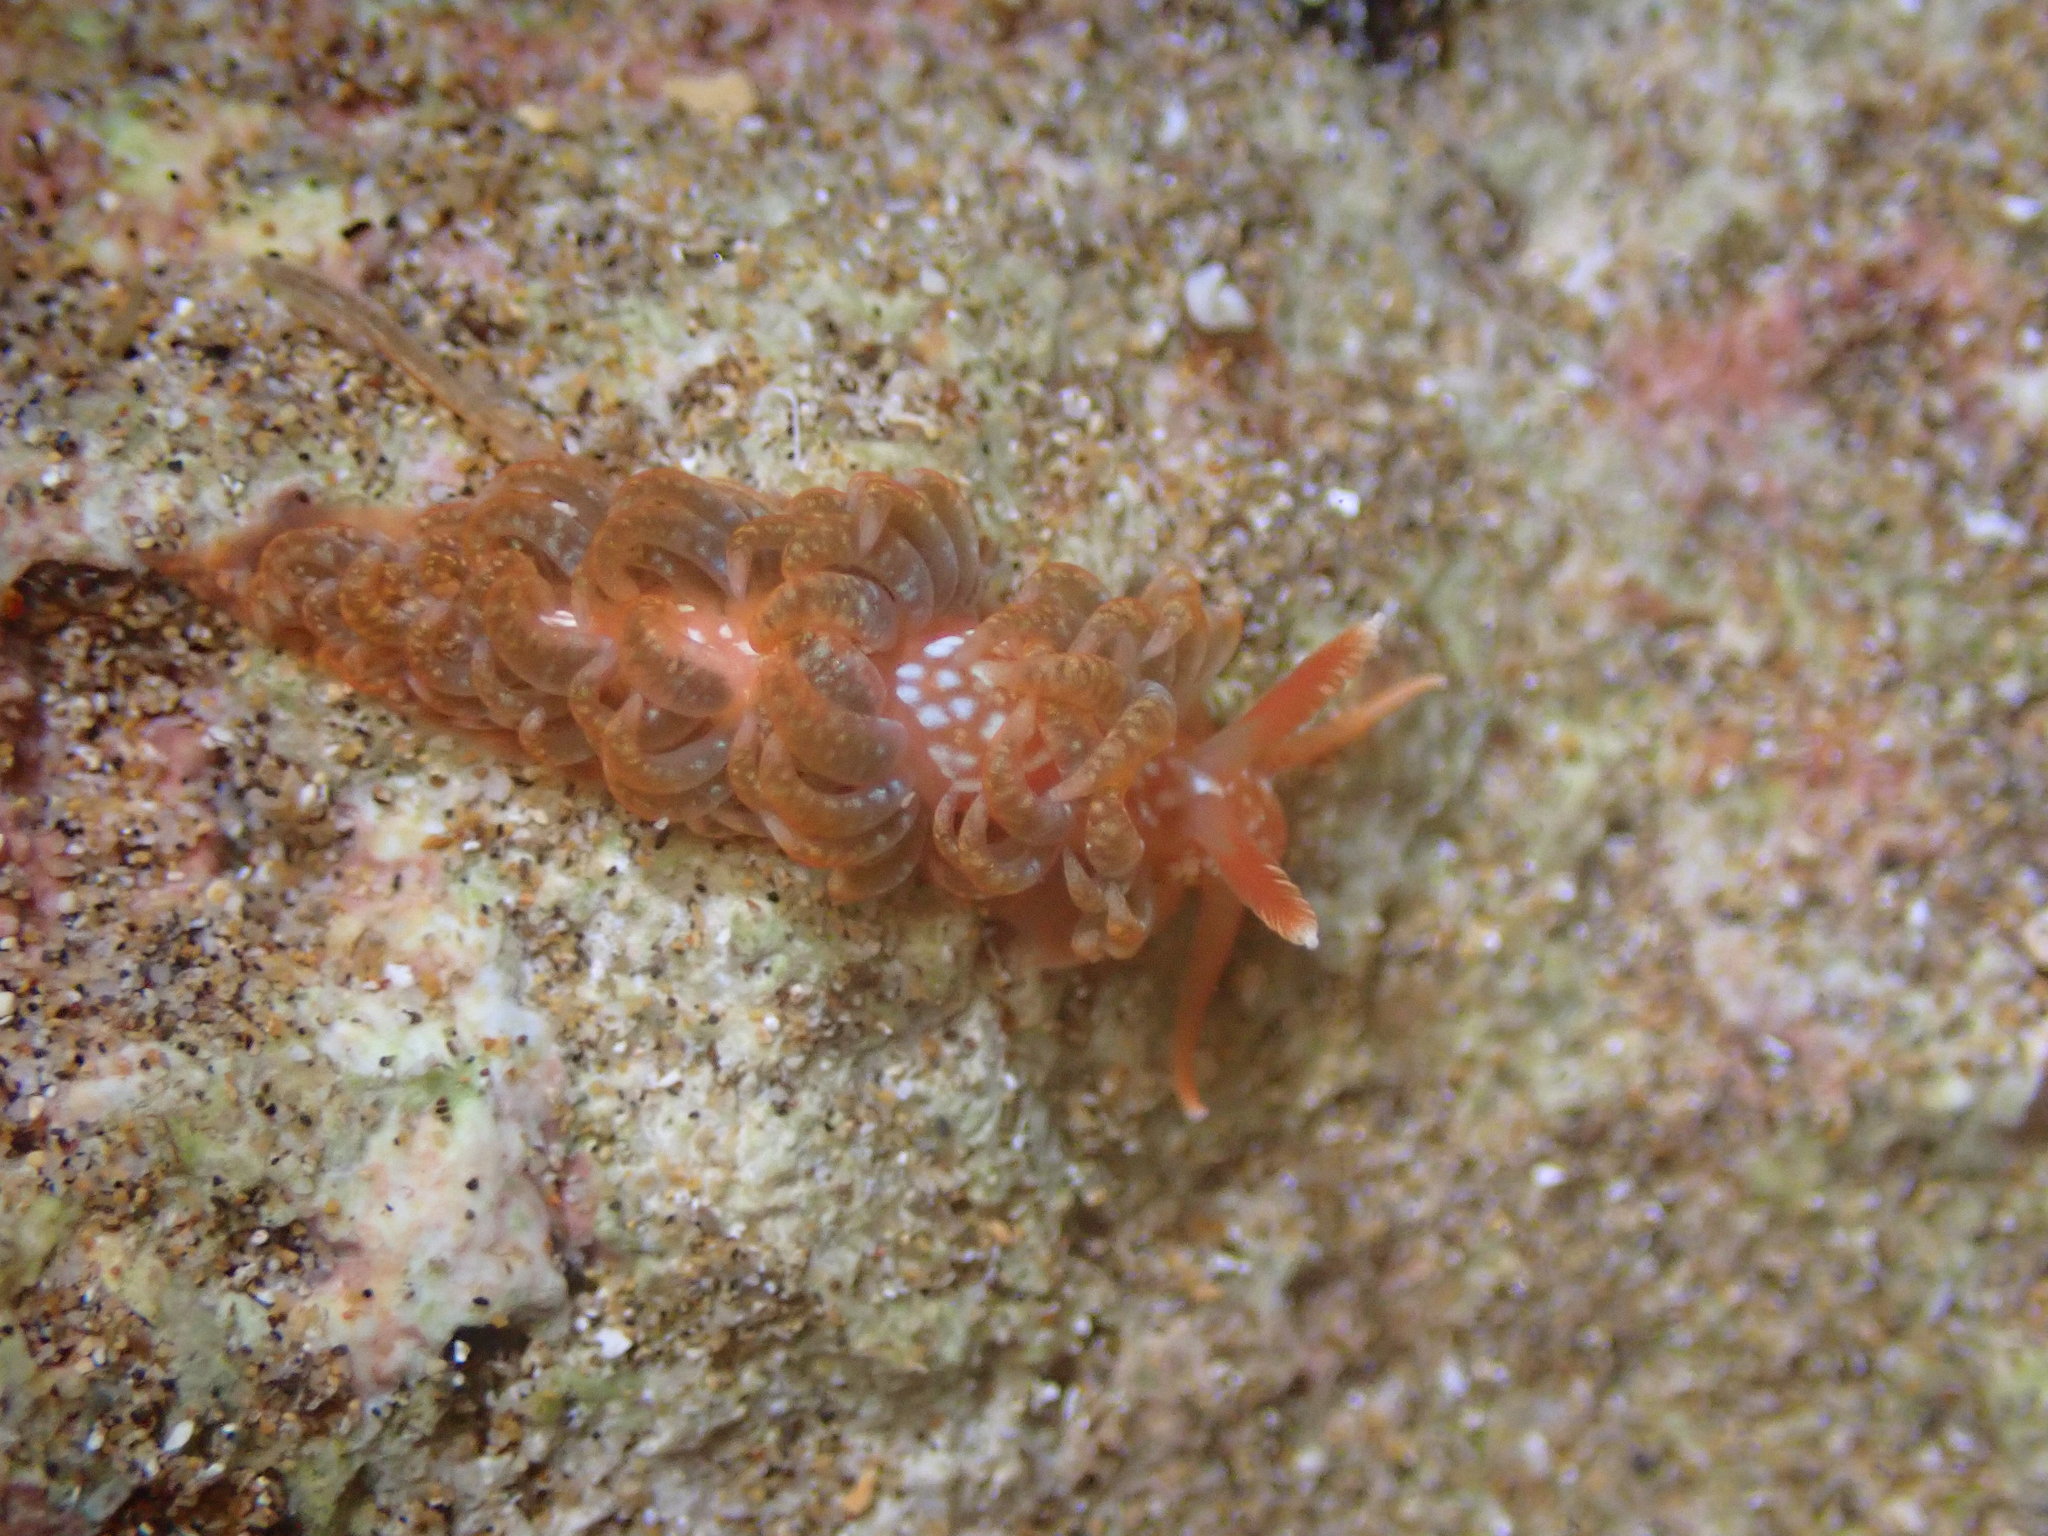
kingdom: Animalia
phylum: Mollusca
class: Gastropoda
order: Nudibranchia
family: Aeolidiidae
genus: Spurilla
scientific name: Spurilla braziliana
